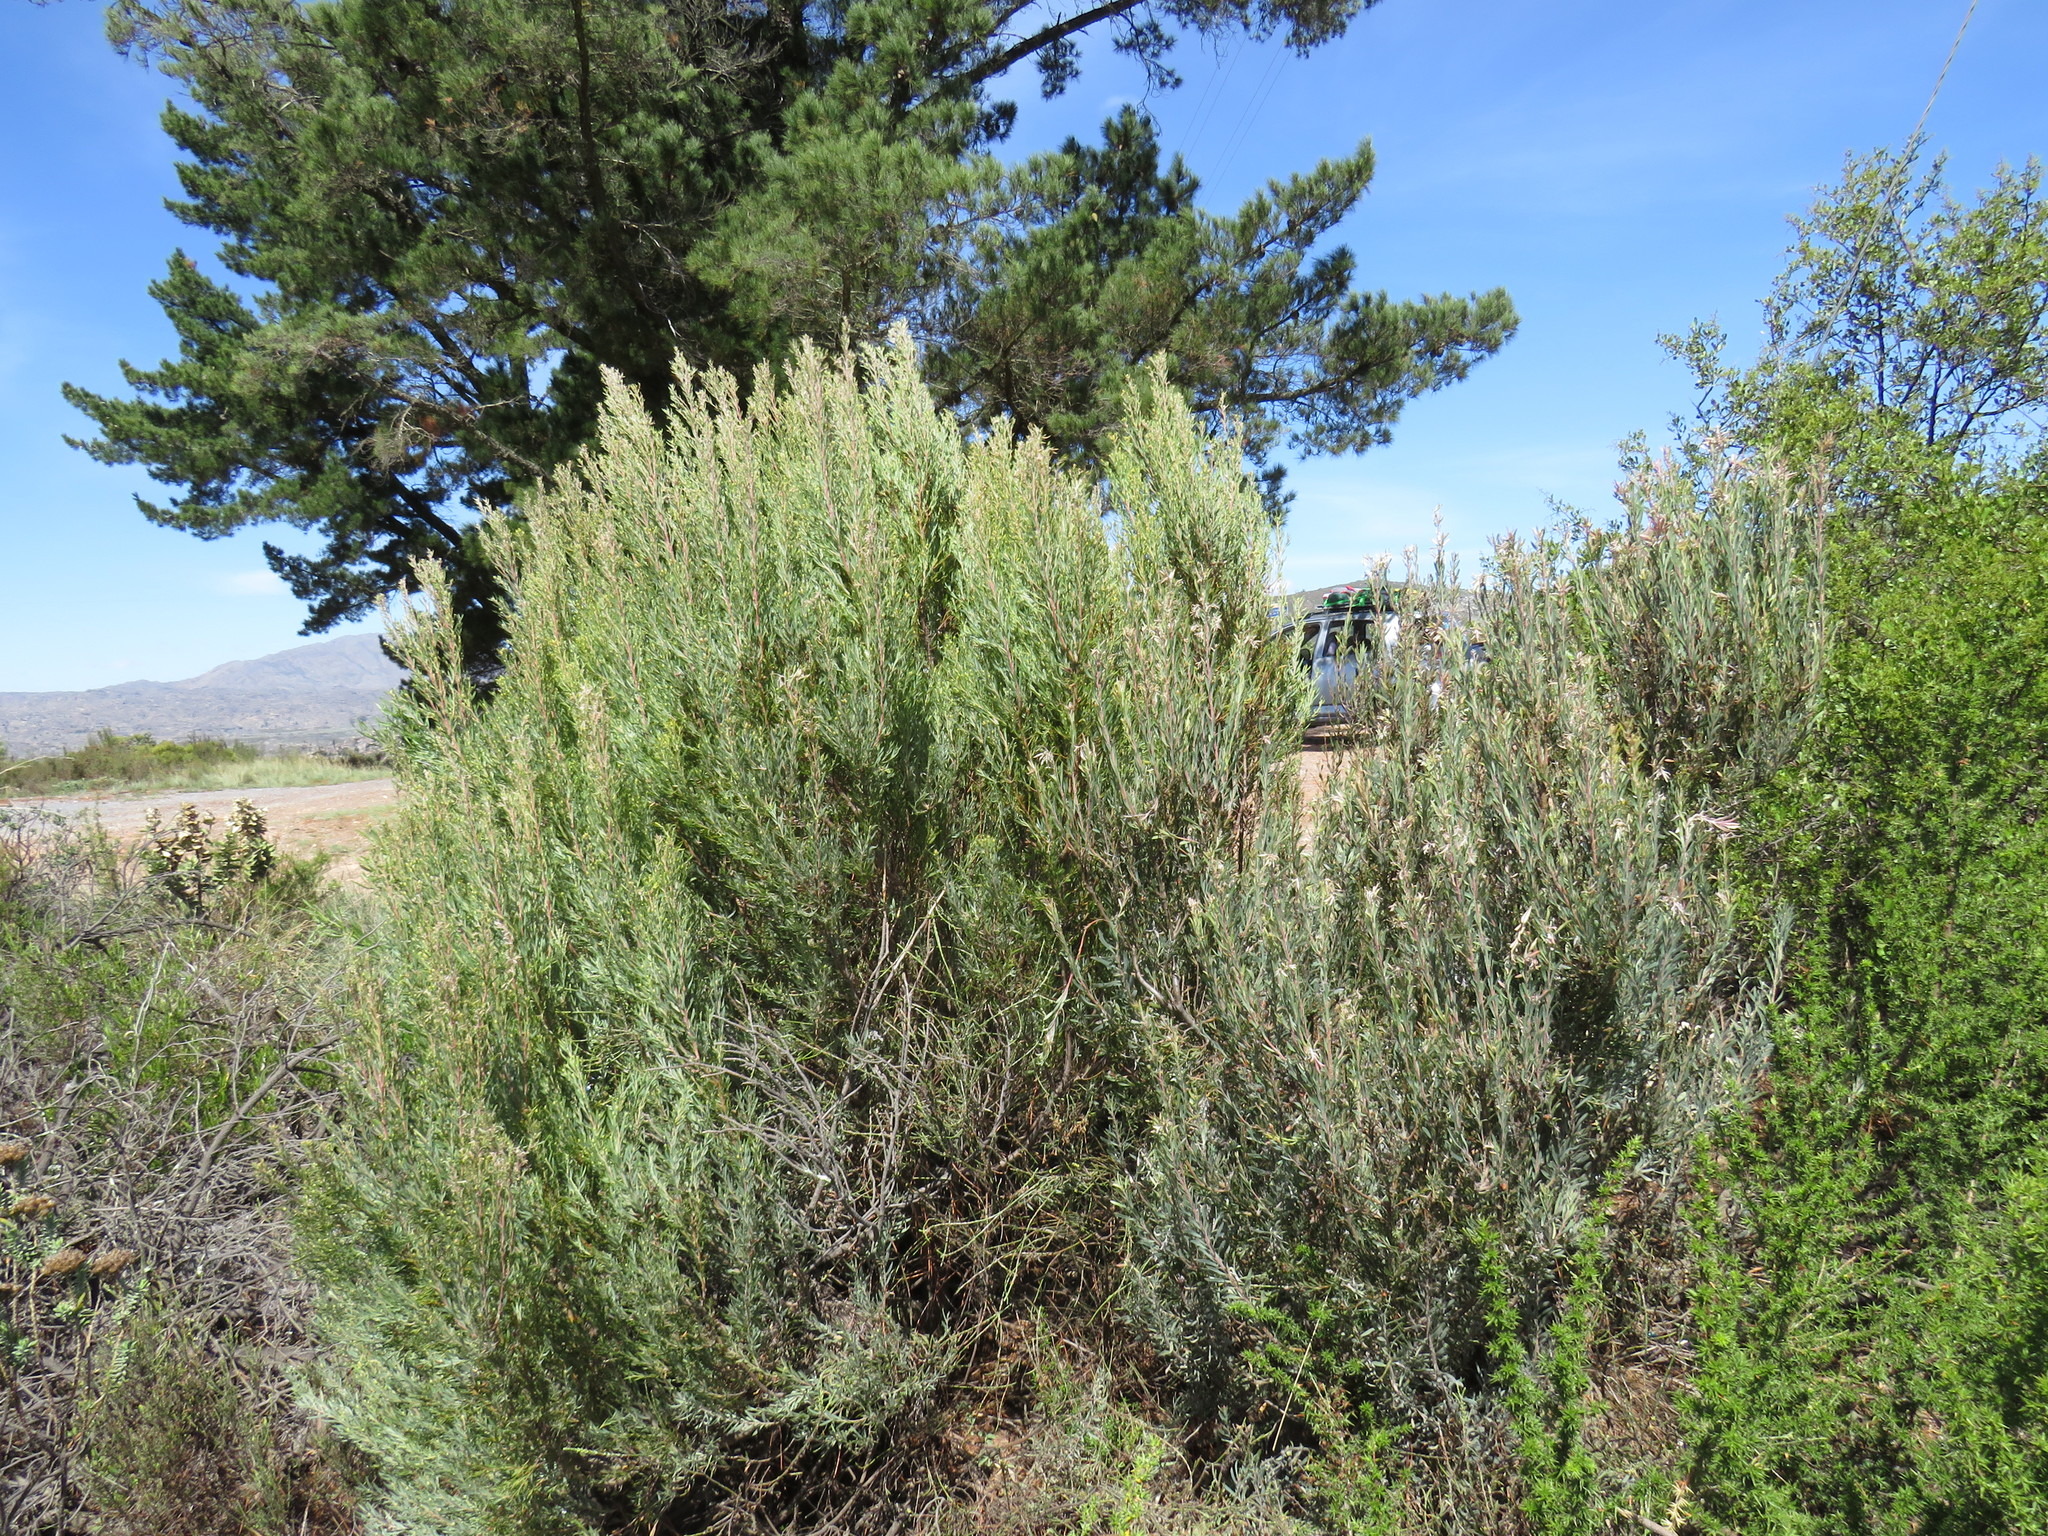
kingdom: Plantae
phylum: Tracheophyta
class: Magnoliopsida
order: Proteales
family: Proteaceae
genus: Leucadendron
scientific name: Leucadendron rubrum
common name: Spinning top
